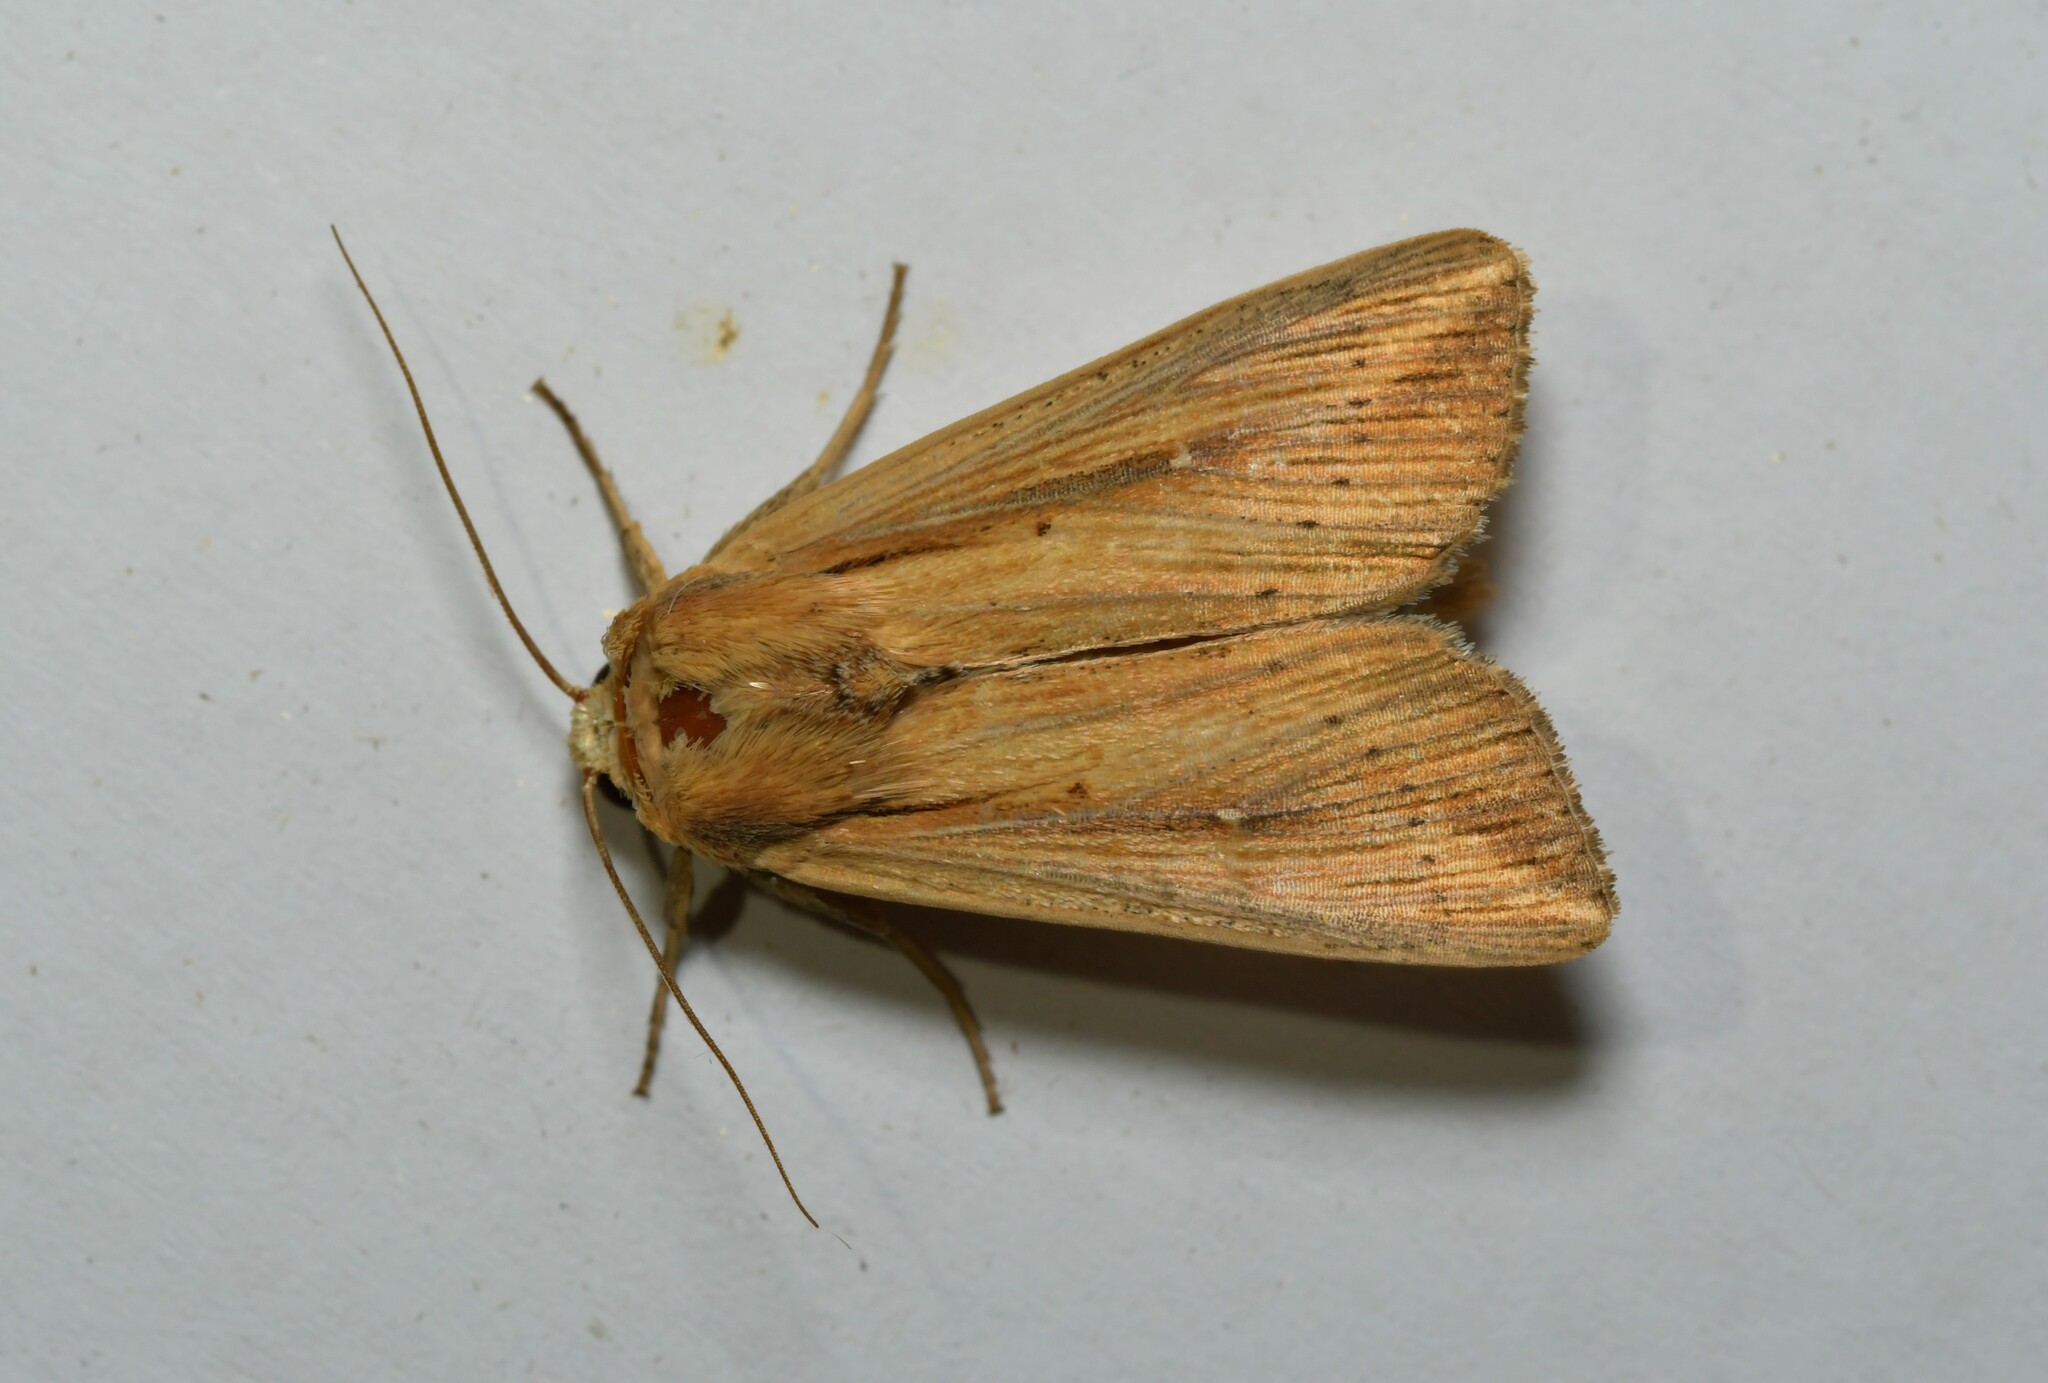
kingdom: Animalia
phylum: Arthropoda
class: Insecta
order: Lepidoptera
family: Noctuidae
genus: Leucania
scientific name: Leucania loreyi
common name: The cosmopolitan
